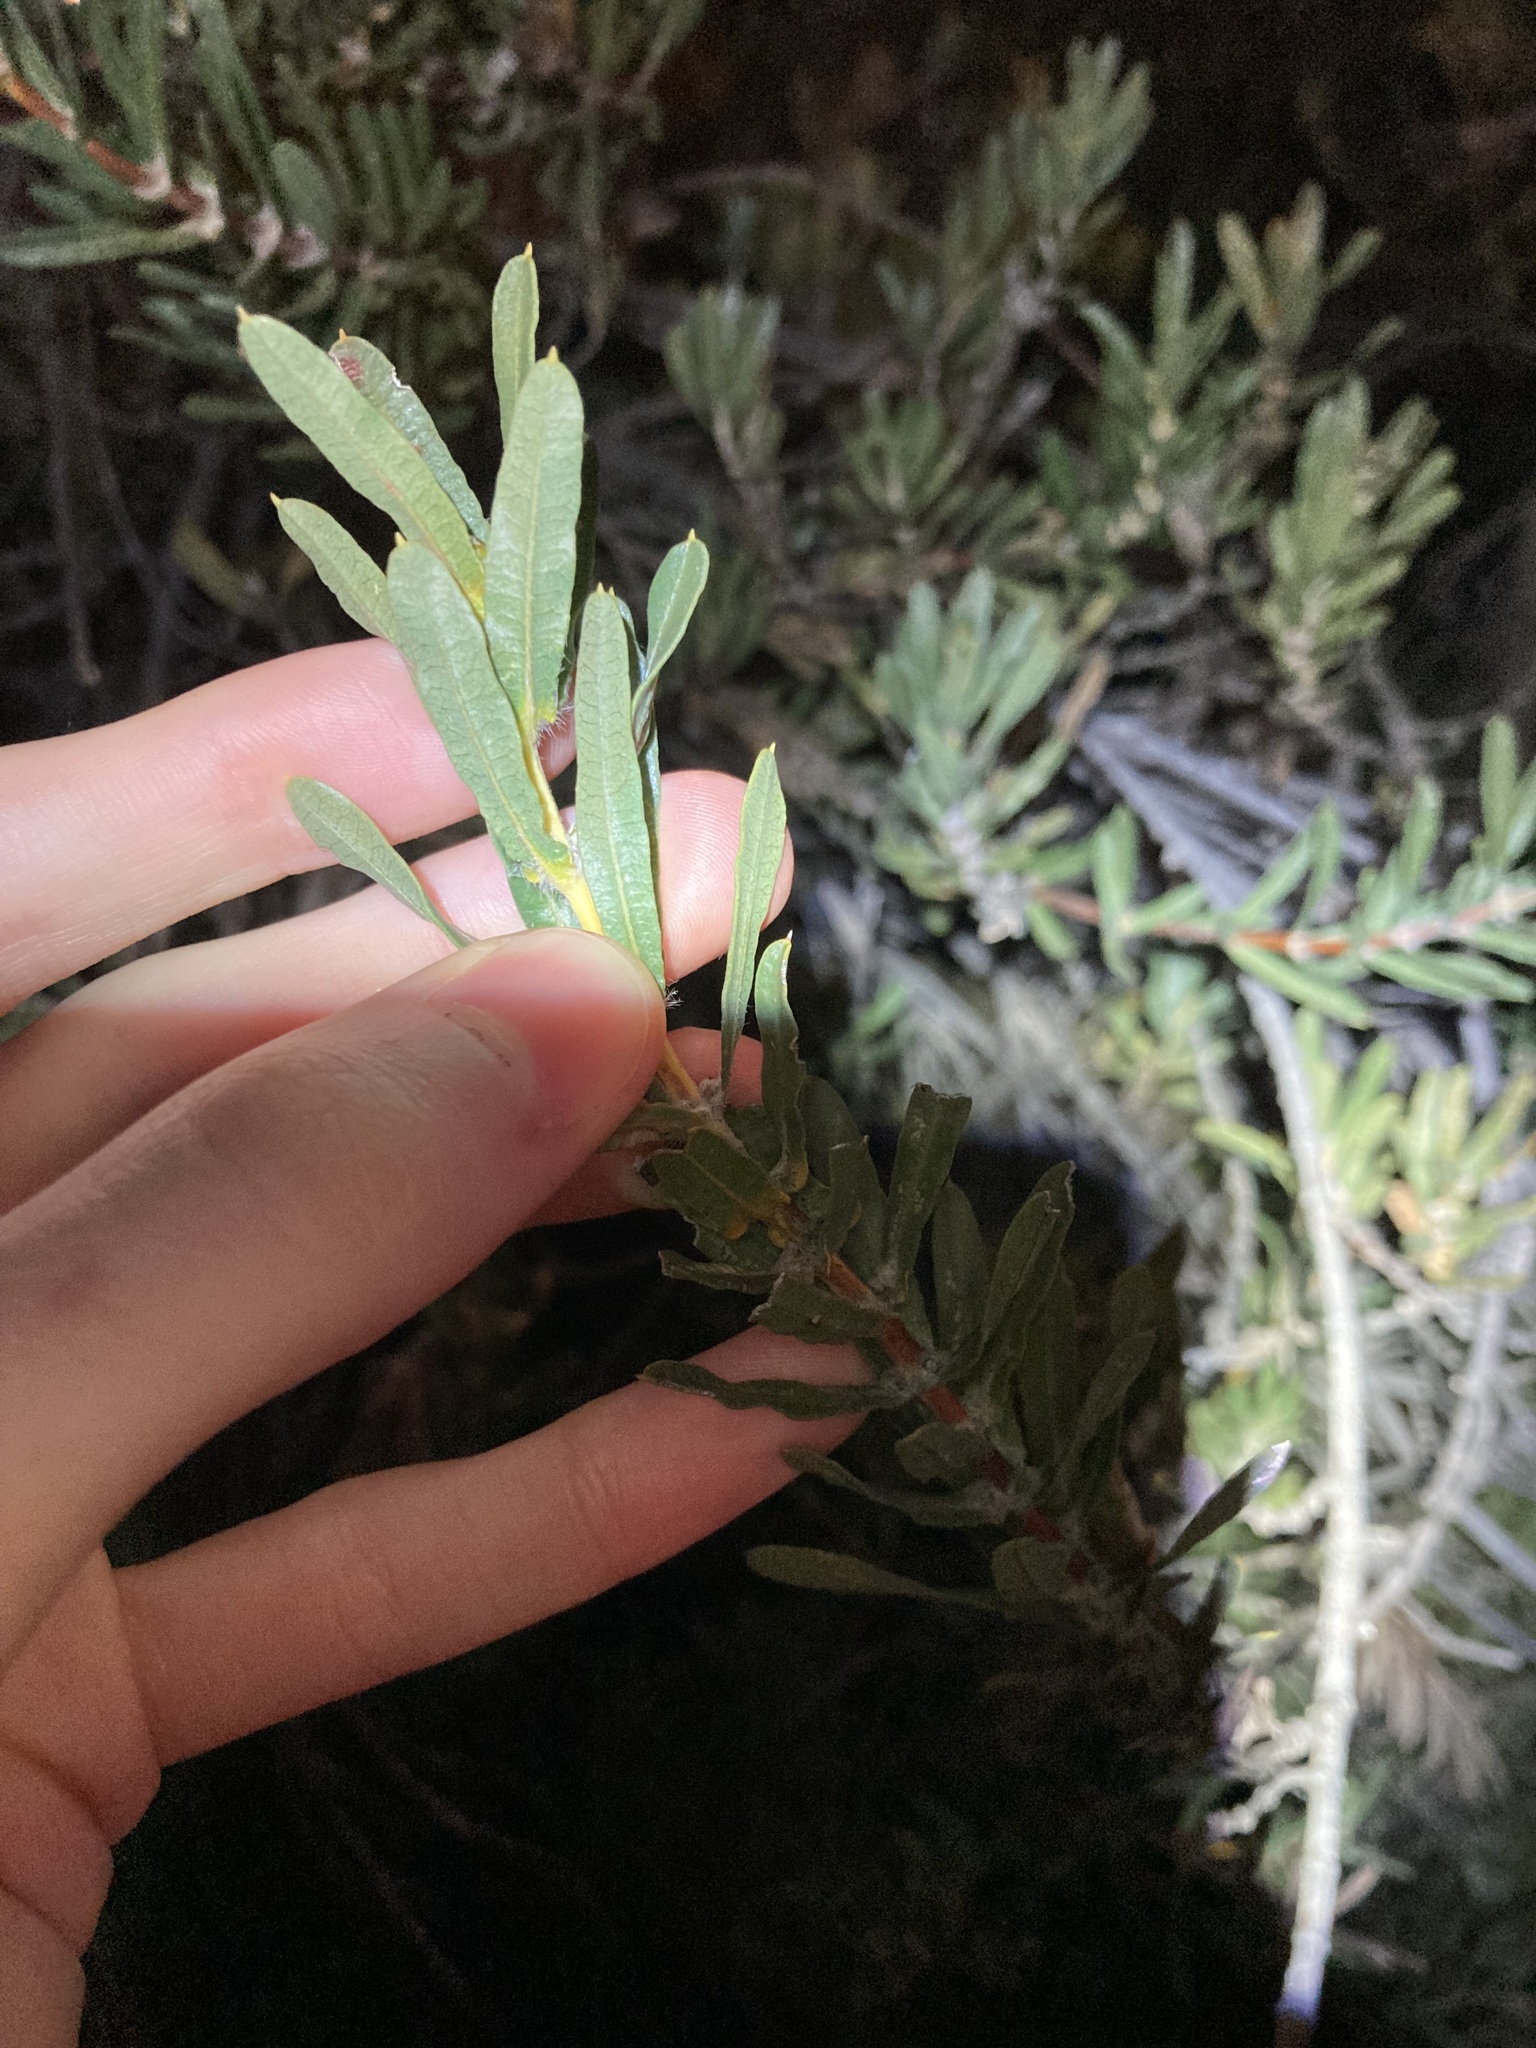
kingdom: Plantae
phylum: Tracheophyta
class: Magnoliopsida
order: Proteales
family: Proteaceae
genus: Lambertia
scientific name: Lambertia multiflora
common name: Many-flowered honeysuckle
